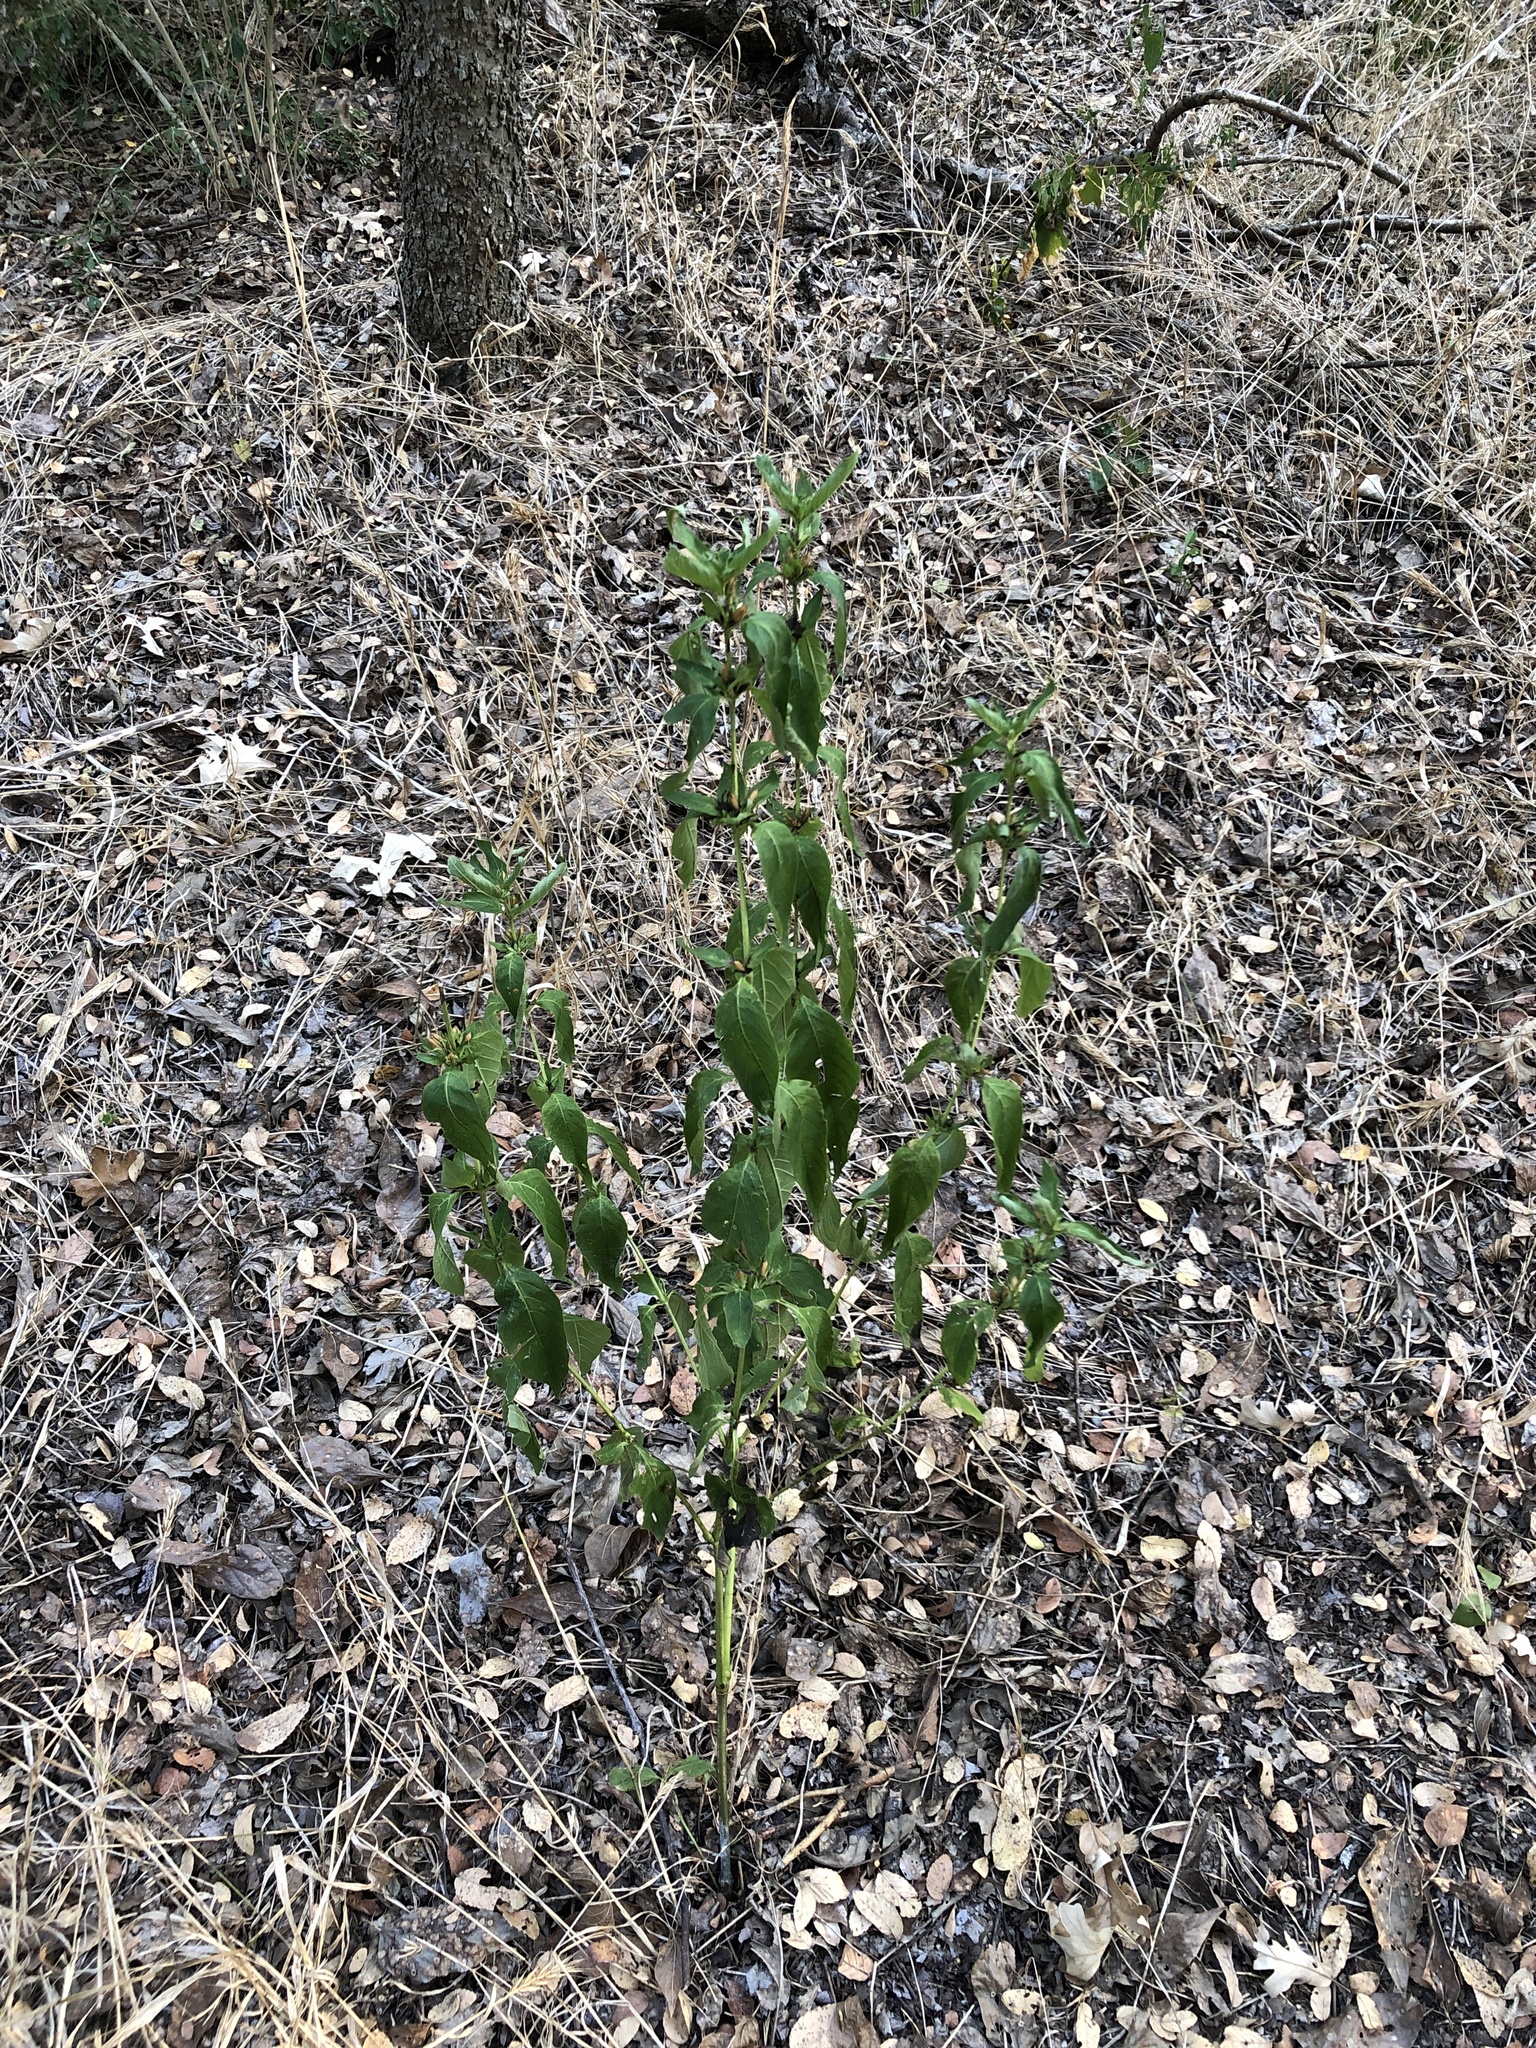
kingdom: Plantae
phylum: Tracheophyta
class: Magnoliopsida
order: Lamiales
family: Acanthaceae
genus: Ruellia
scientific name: Ruellia strepens
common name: Limestone wild petunia
